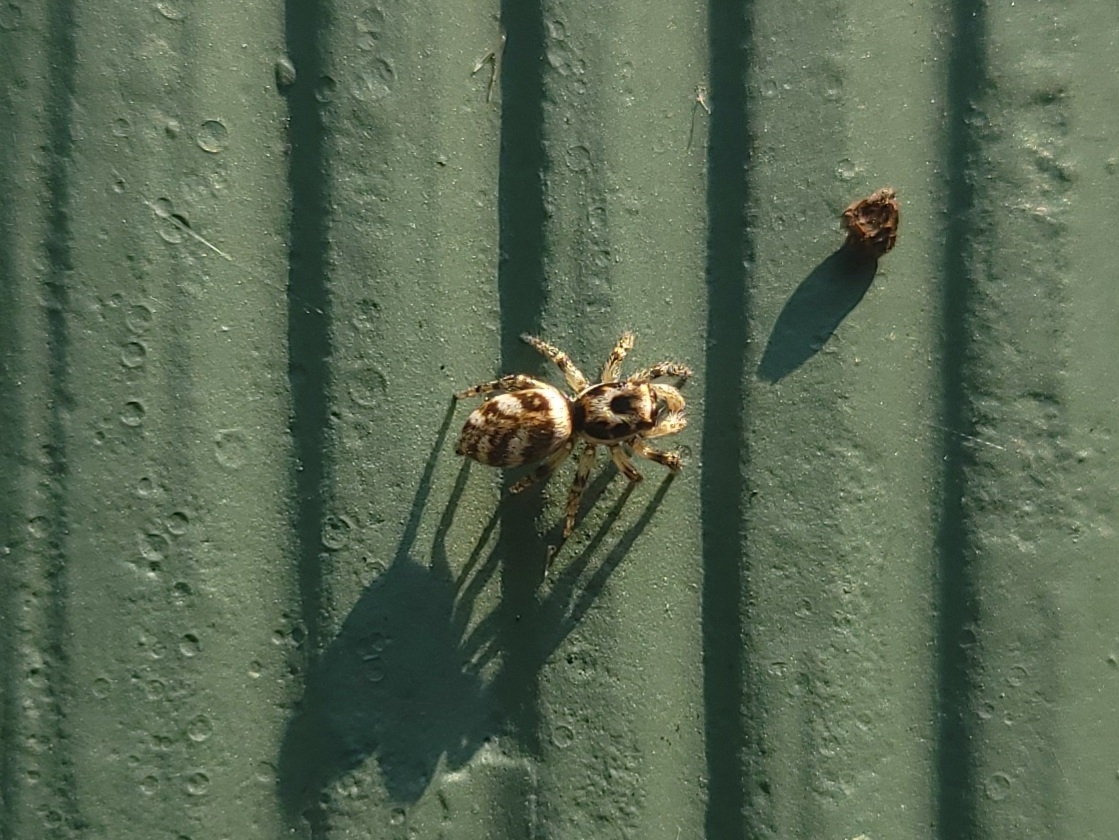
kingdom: Animalia
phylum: Arthropoda
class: Arachnida
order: Araneae
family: Salticidae
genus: Salticus
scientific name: Salticus scenicus
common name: Zebra jumper
